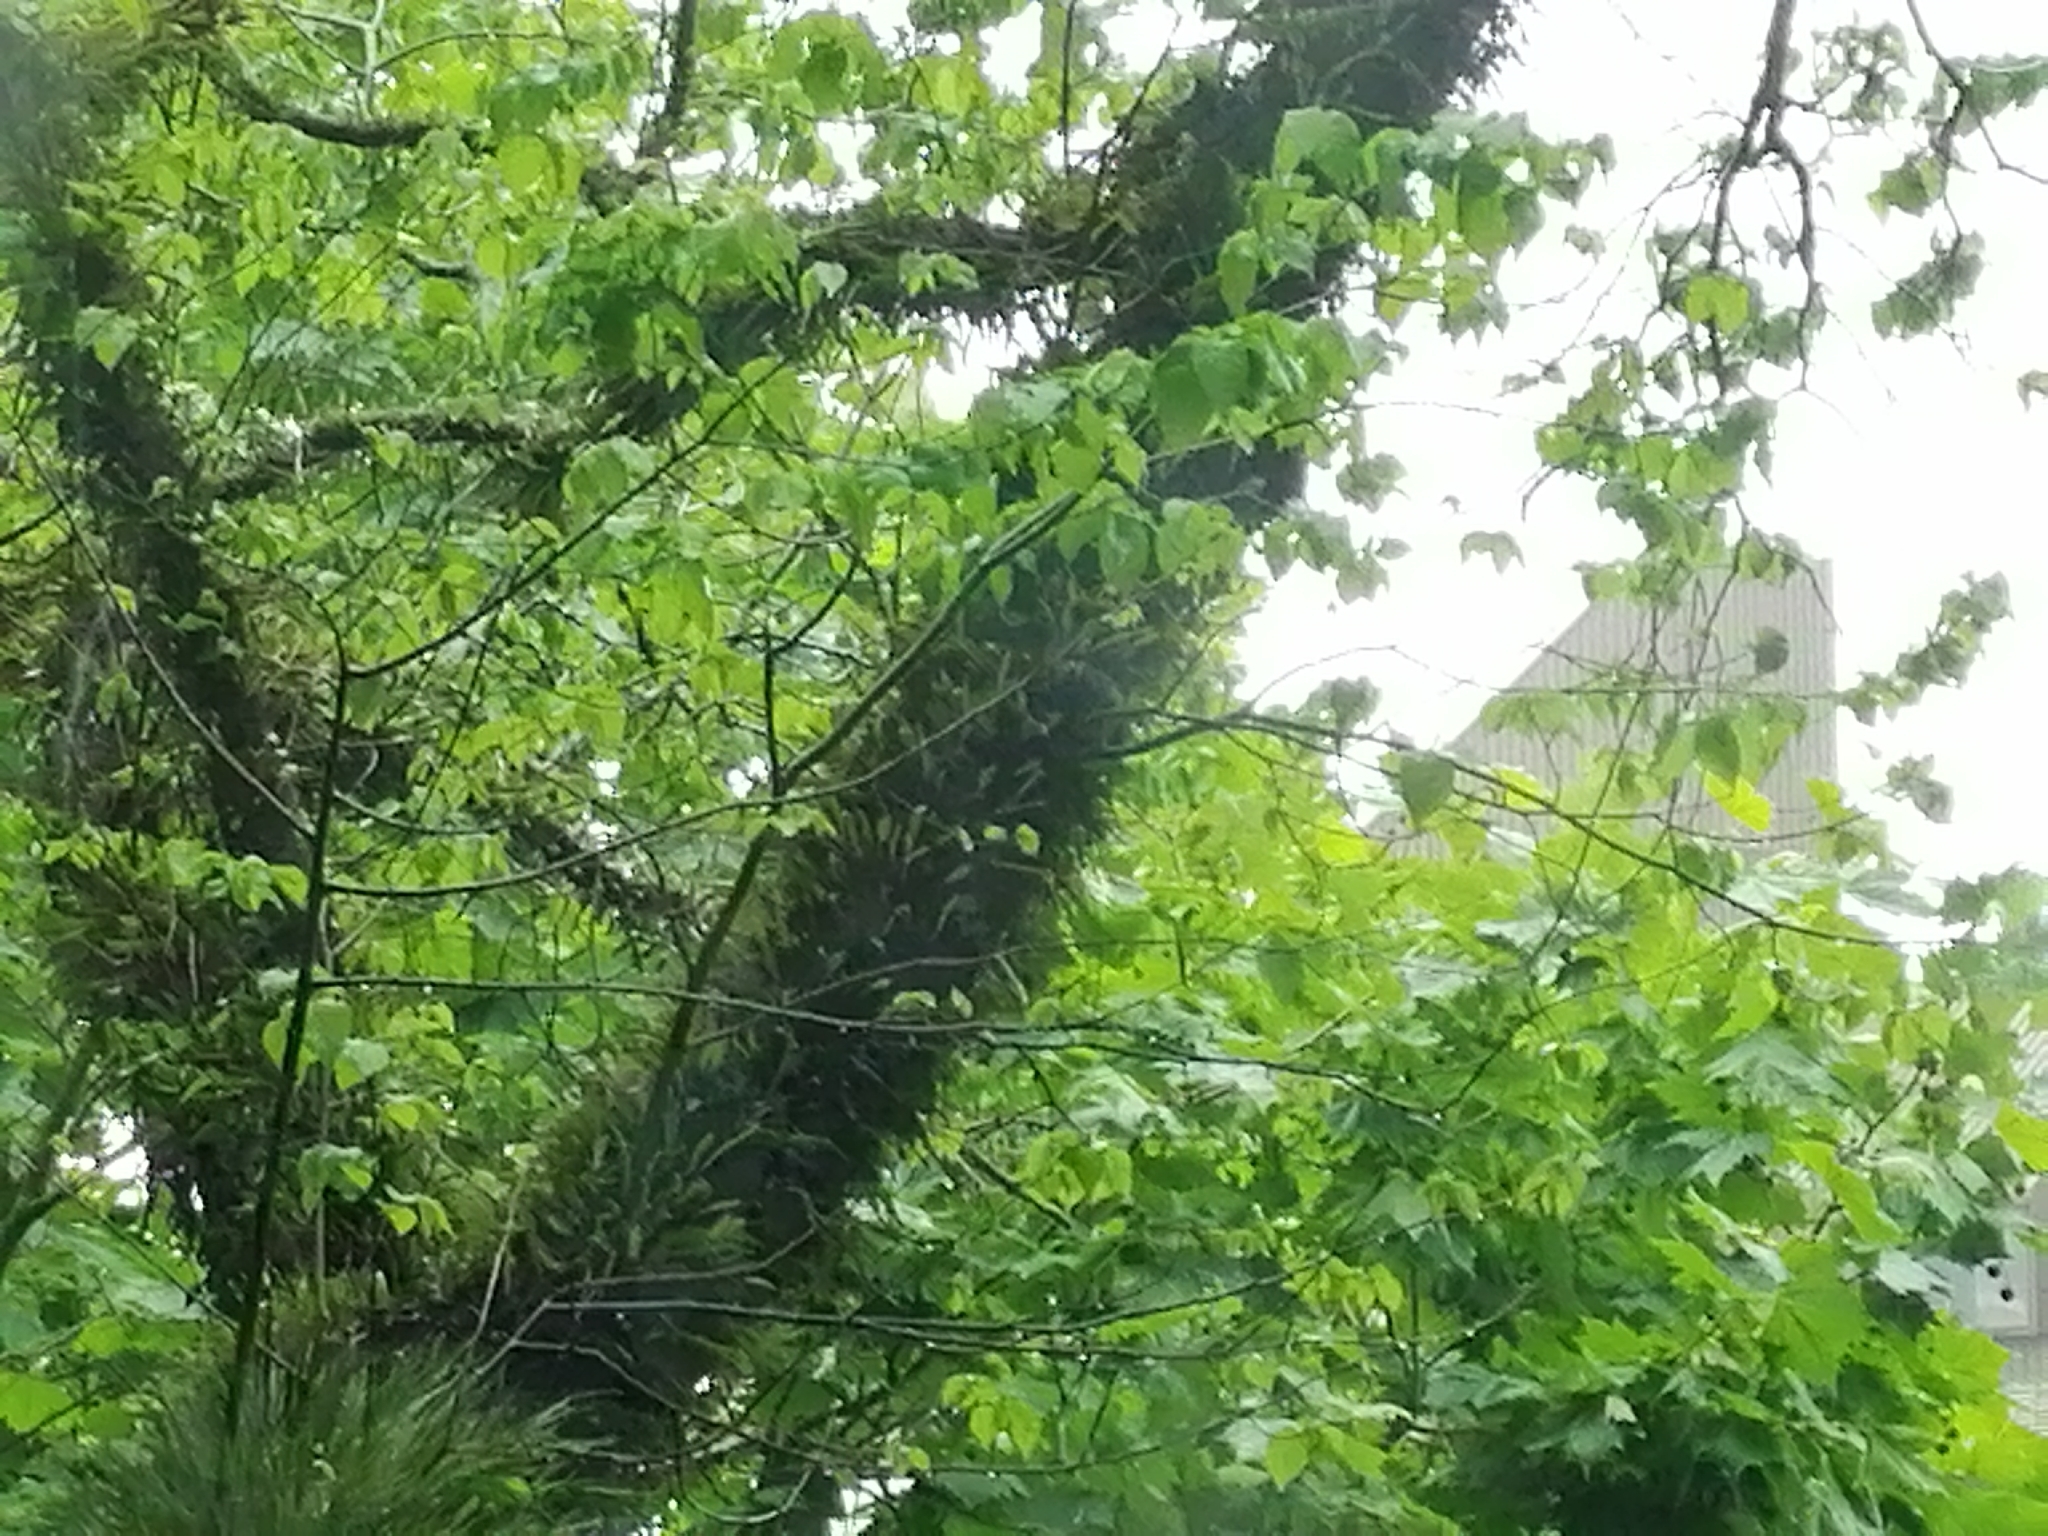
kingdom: Plantae
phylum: Tracheophyta
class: Polypodiopsida
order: Polypodiales
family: Polypodiaceae
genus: Pyrrosia
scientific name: Pyrrosia eleagnifolia
